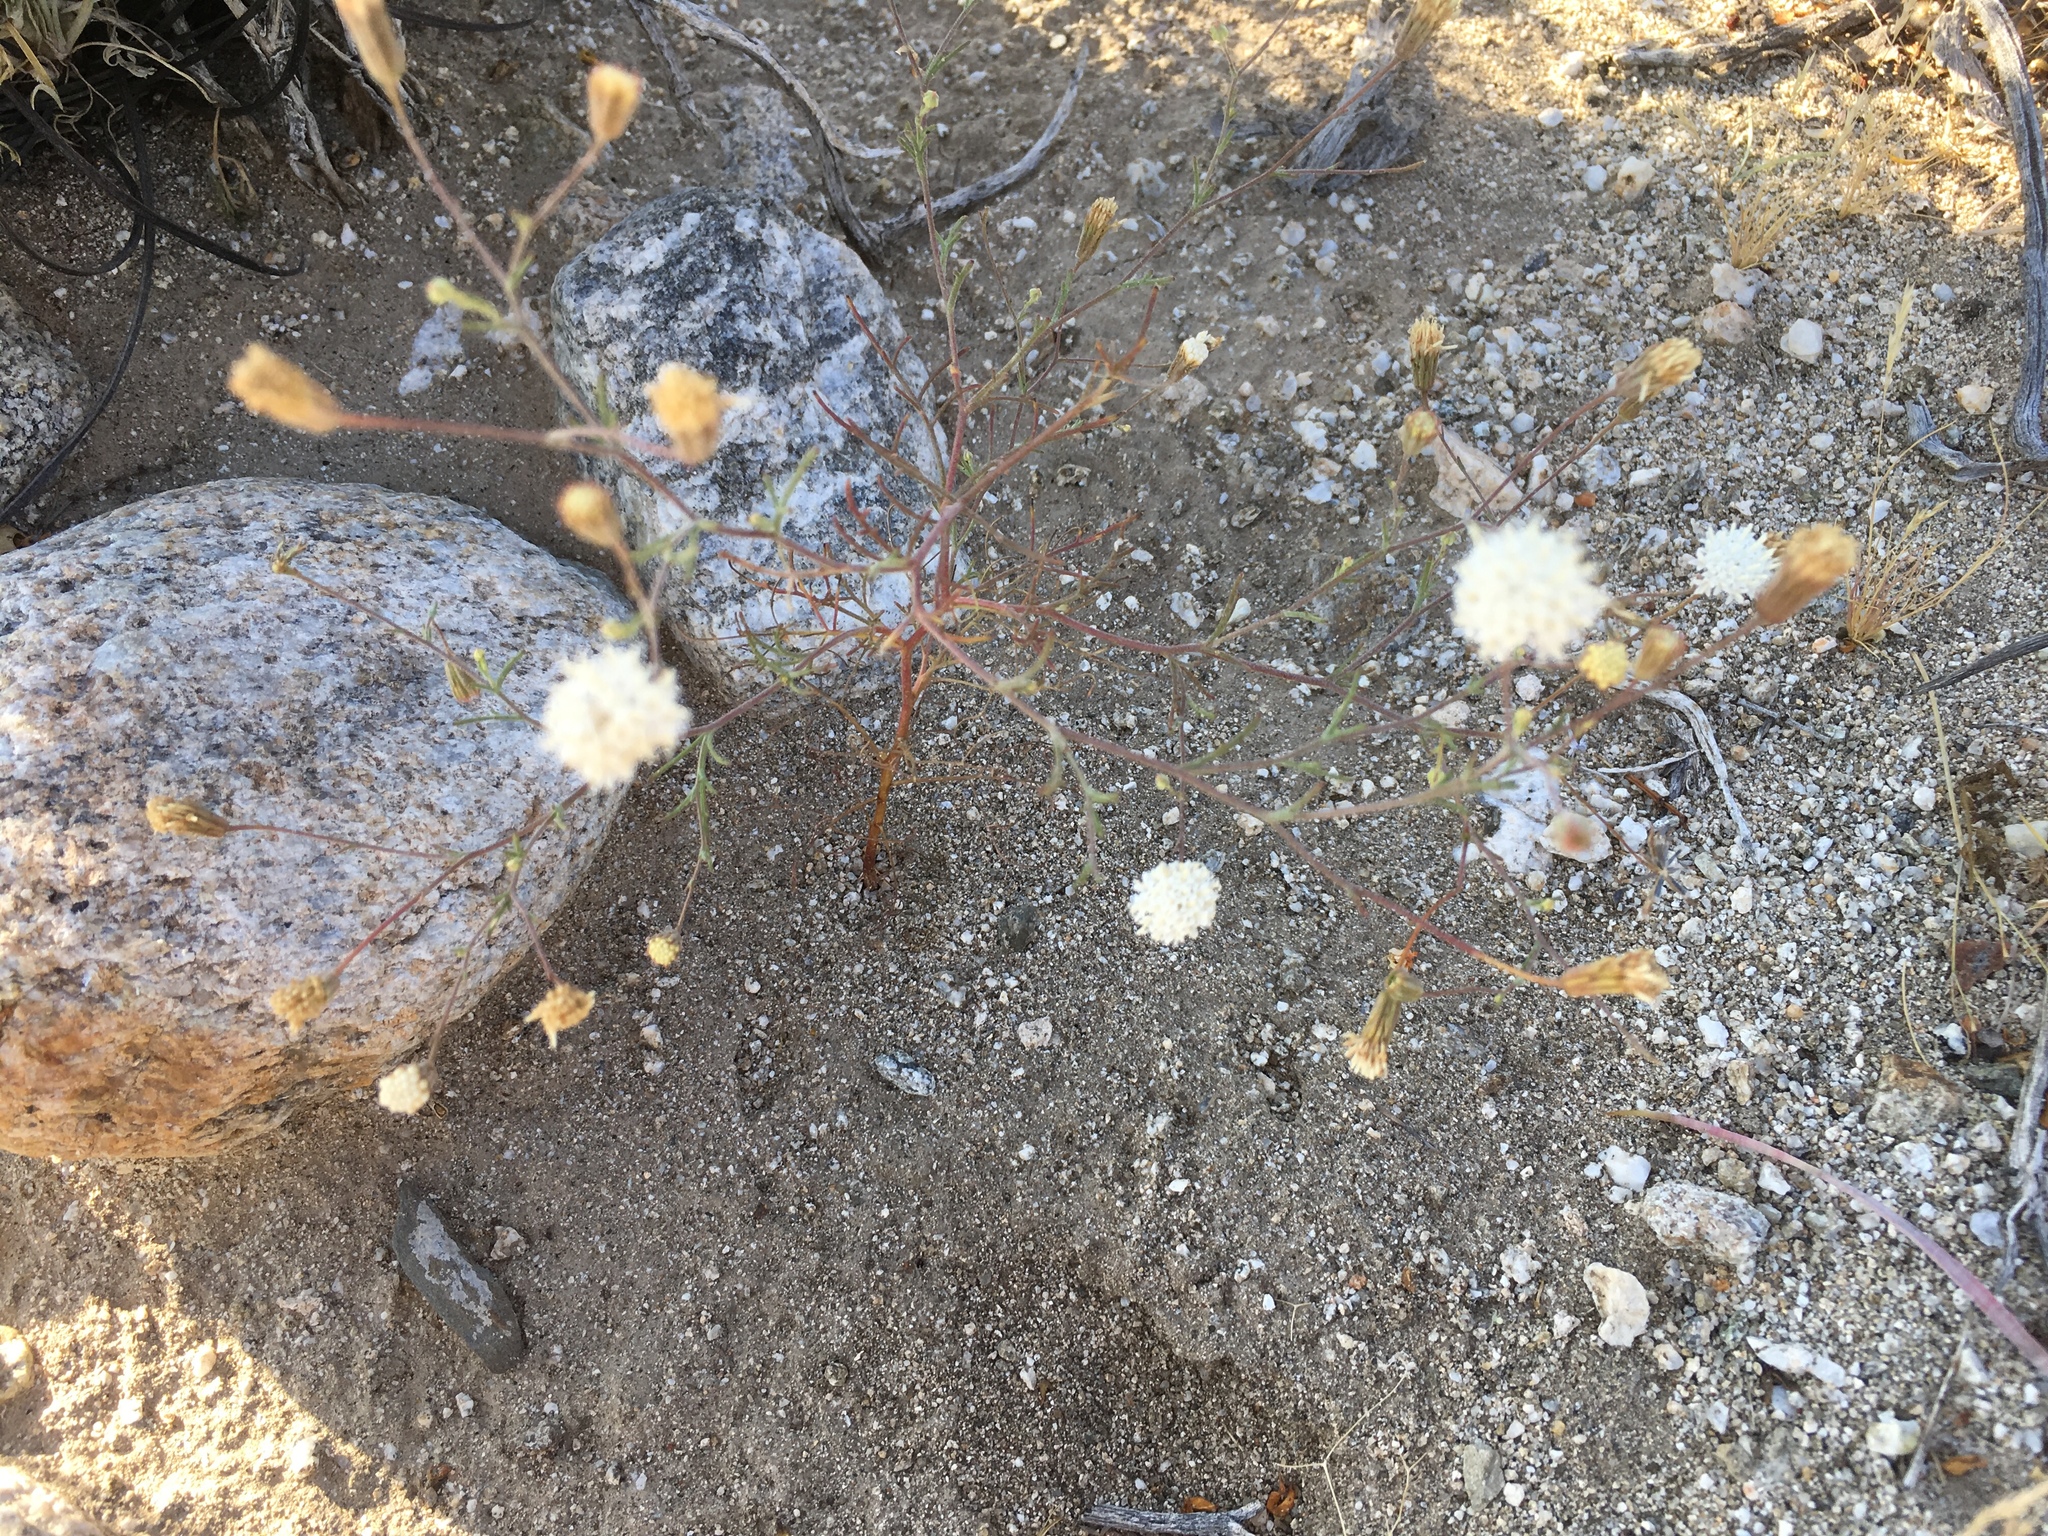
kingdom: Plantae
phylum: Tracheophyta
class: Magnoliopsida
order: Asterales
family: Asteraceae
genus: Chaenactis
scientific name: Chaenactis carphoclinia
